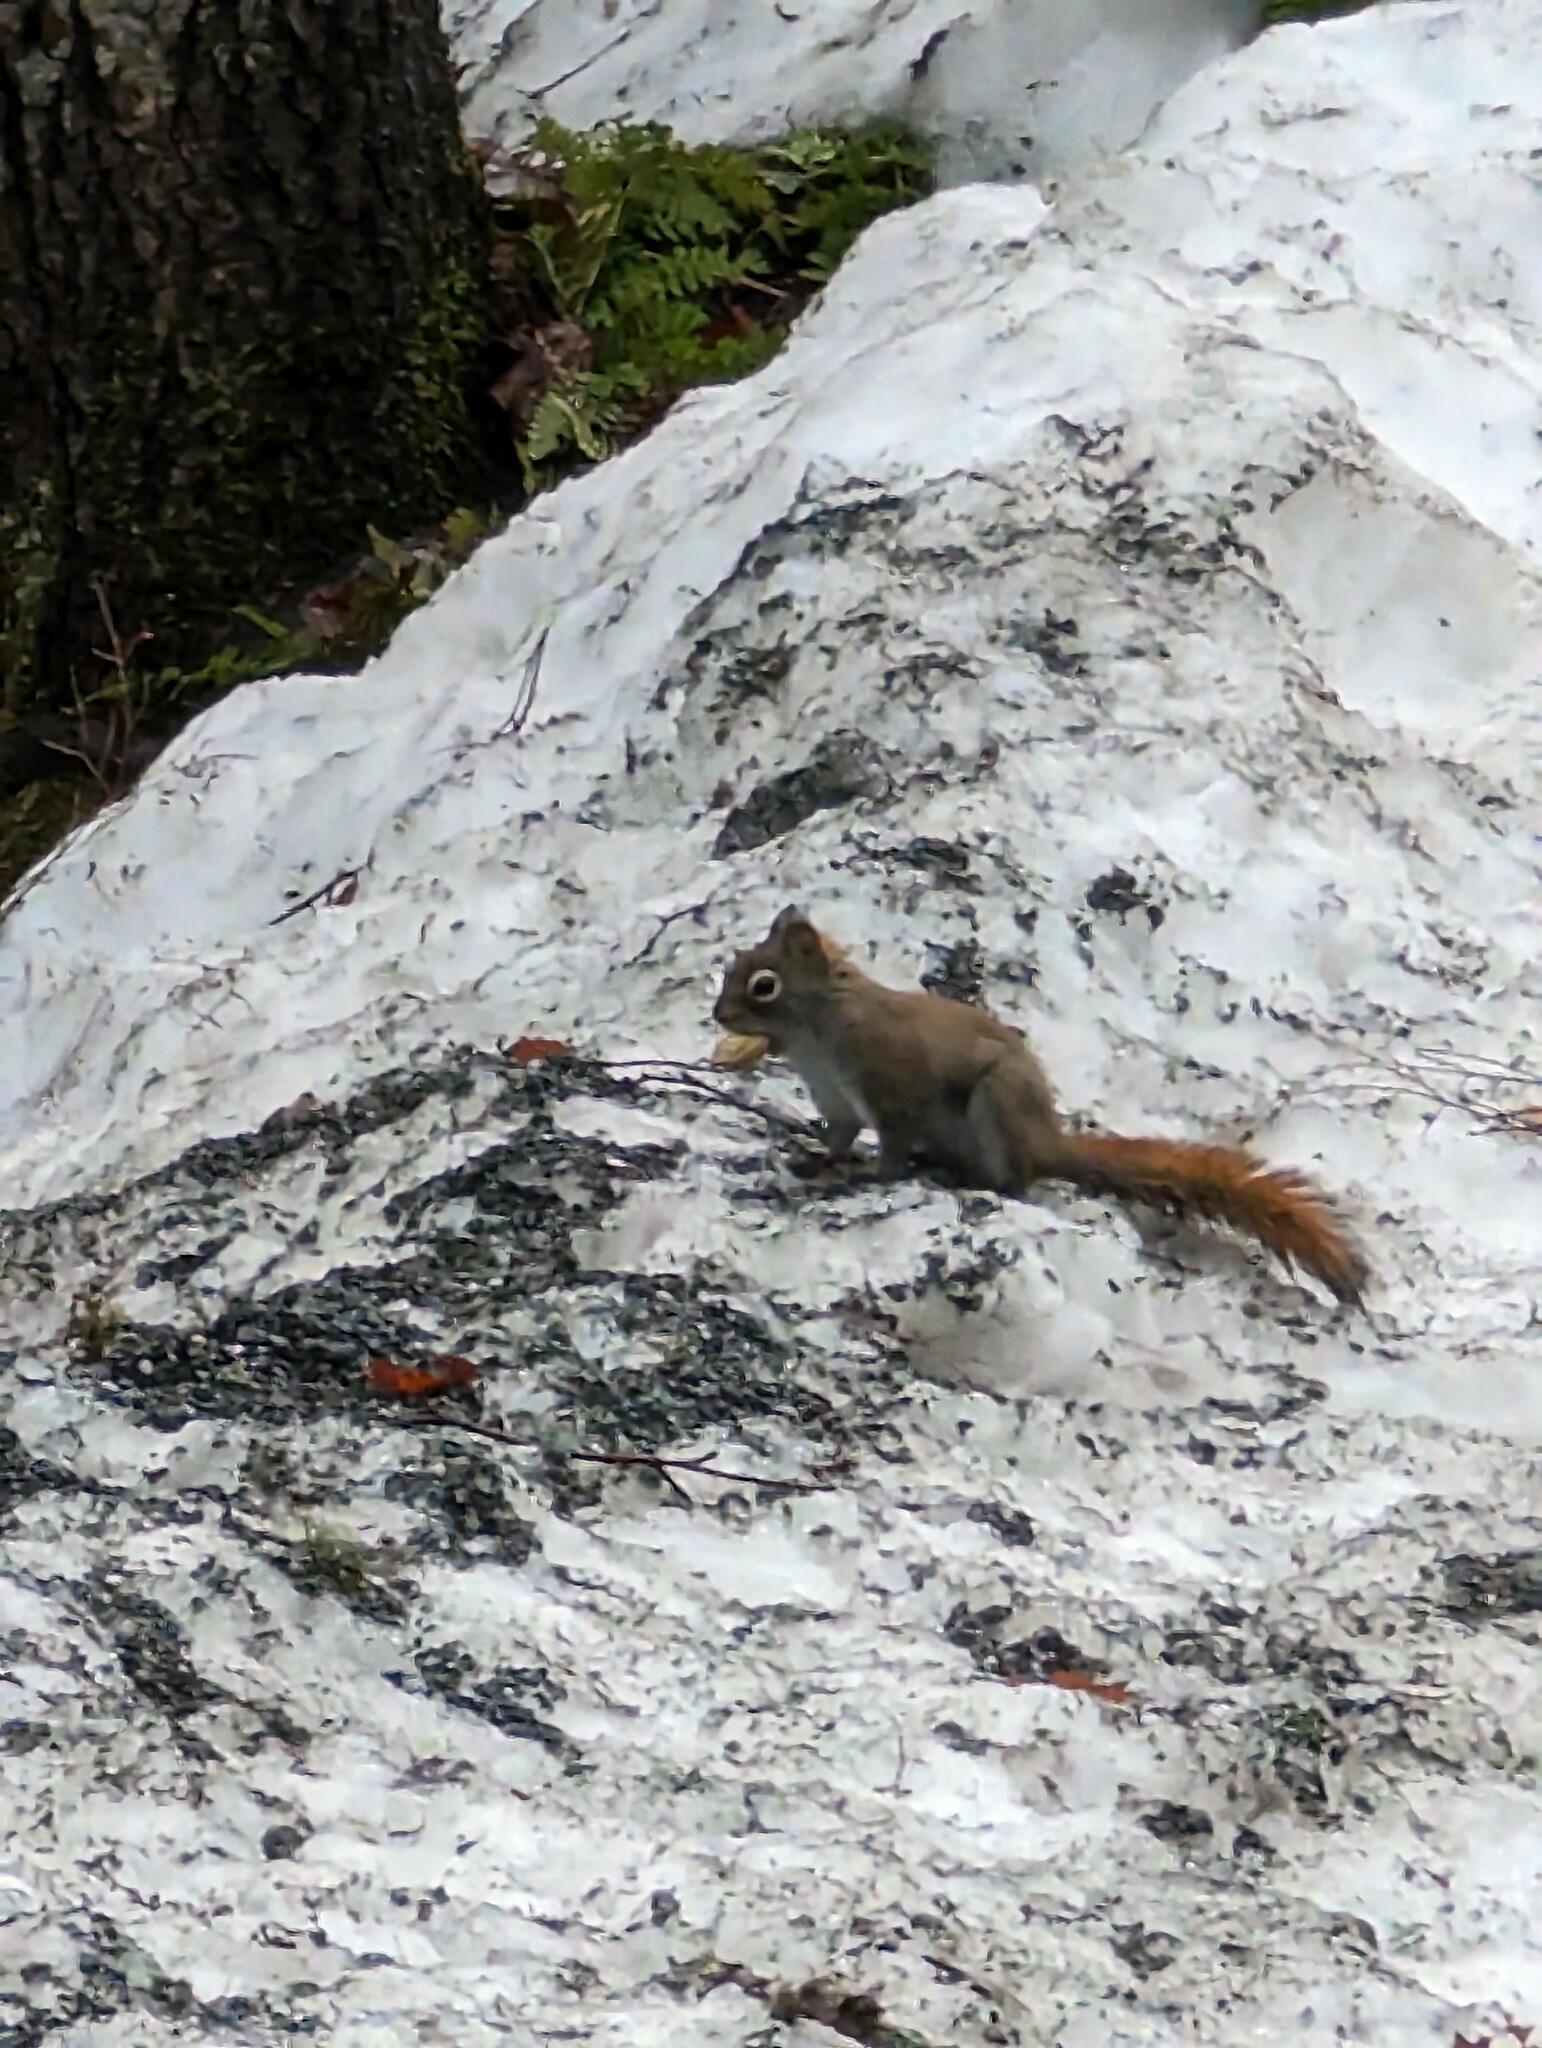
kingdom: Animalia
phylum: Chordata
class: Mammalia
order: Rodentia
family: Sciuridae
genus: Tamiasciurus
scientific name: Tamiasciurus hudsonicus
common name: Red squirrel
